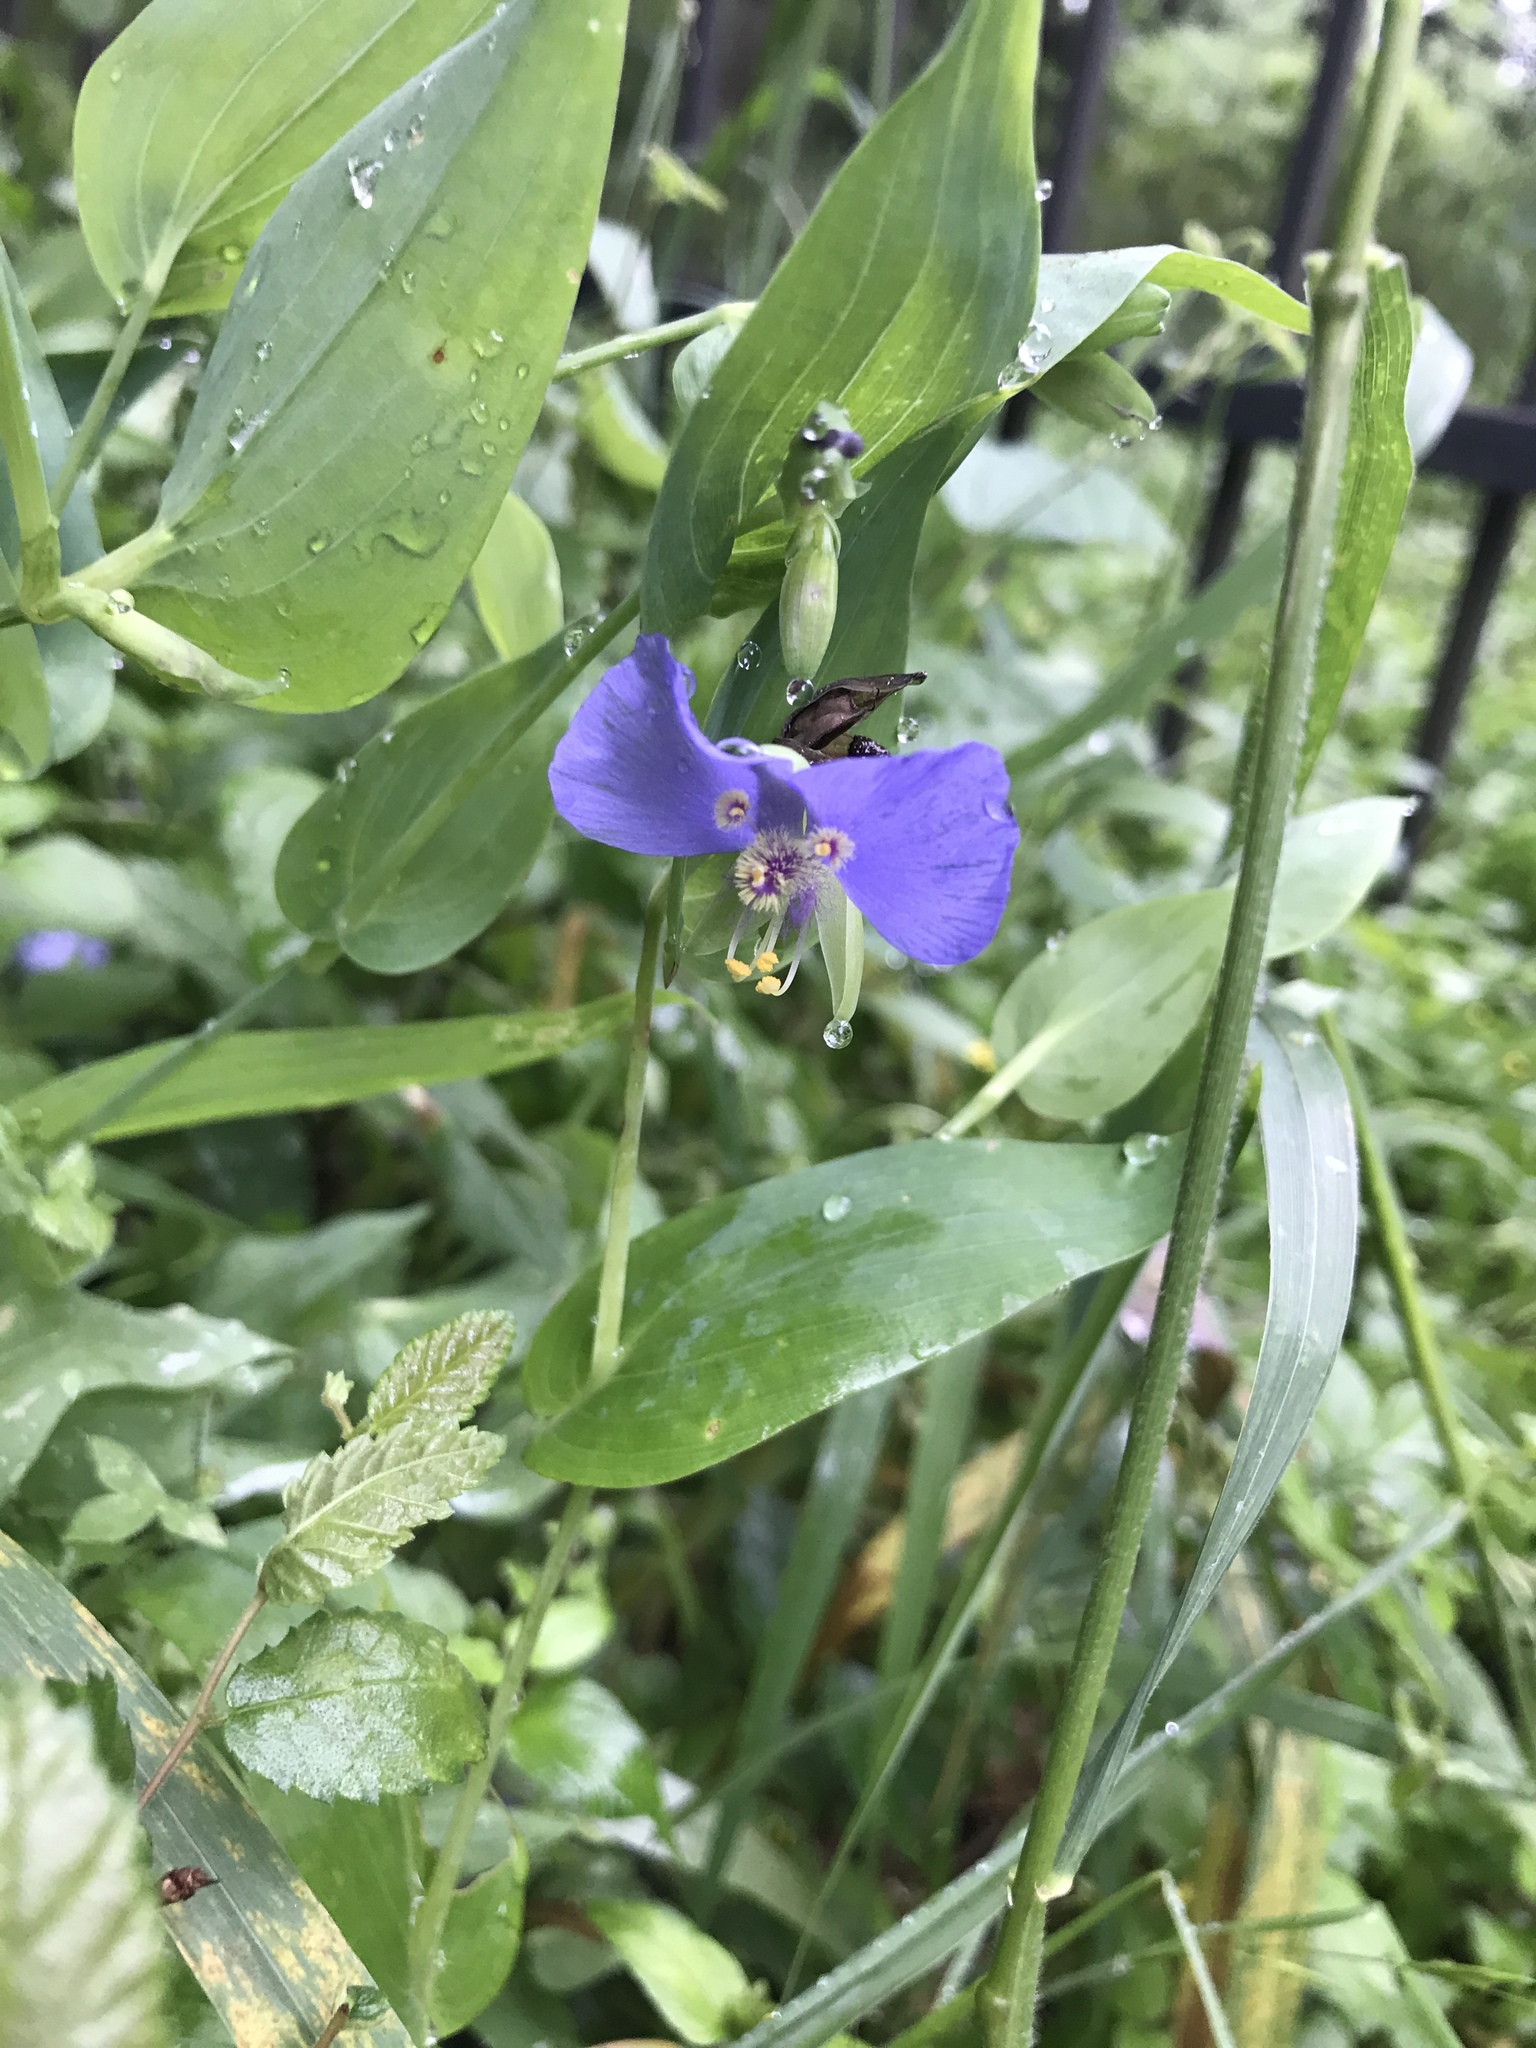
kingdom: Plantae
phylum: Tracheophyta
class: Liliopsida
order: Commelinales
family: Commelinaceae
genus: Tinantia
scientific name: Tinantia anomala
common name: False dayflower
